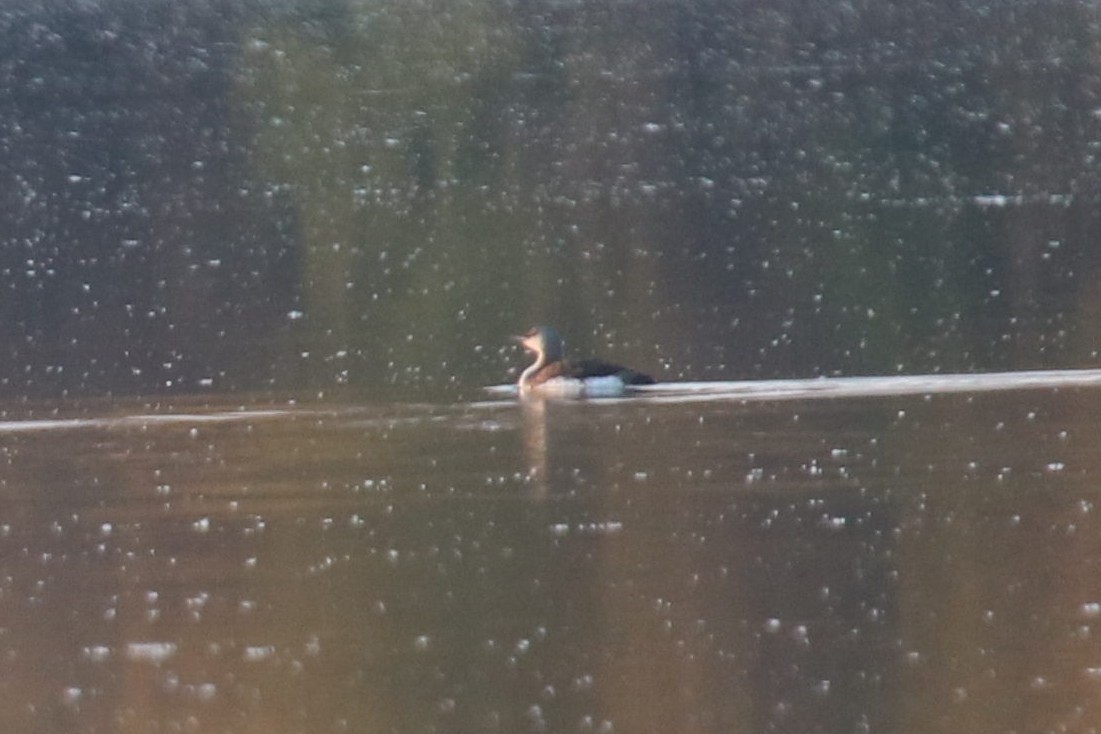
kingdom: Animalia
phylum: Chordata
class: Aves
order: Gaviiformes
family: Gaviidae
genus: Gavia
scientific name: Gavia arctica
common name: Black-throated loon
